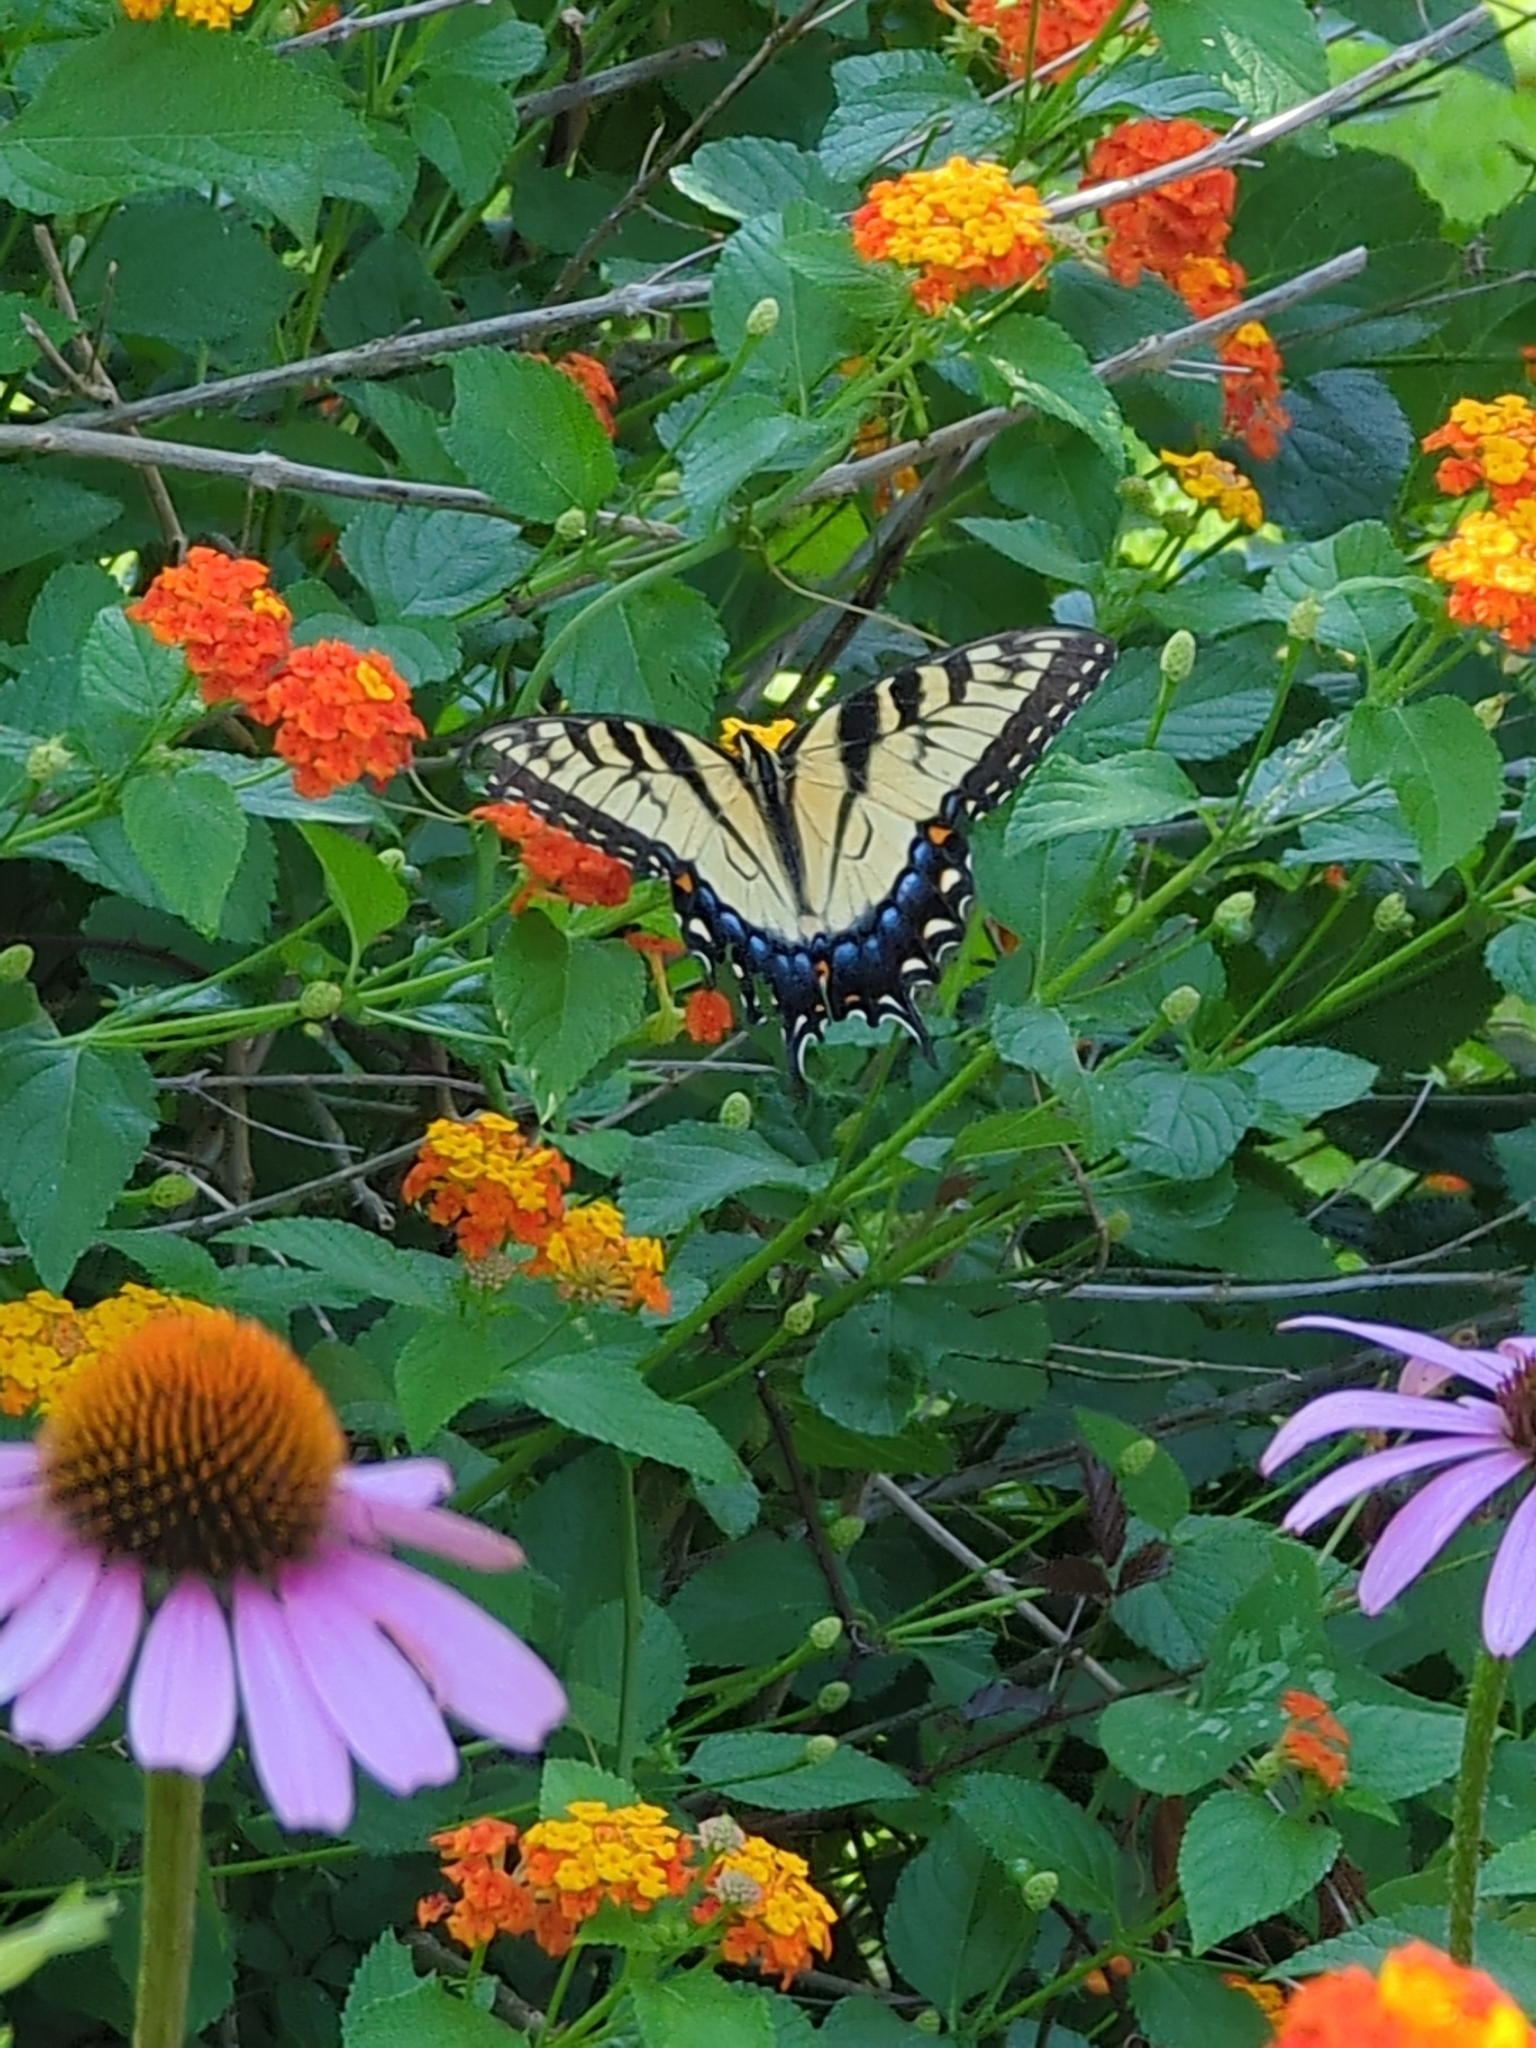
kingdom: Animalia
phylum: Arthropoda
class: Insecta
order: Lepidoptera
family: Papilionidae
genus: Papilio
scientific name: Papilio glaucus
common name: Tiger swallowtail
